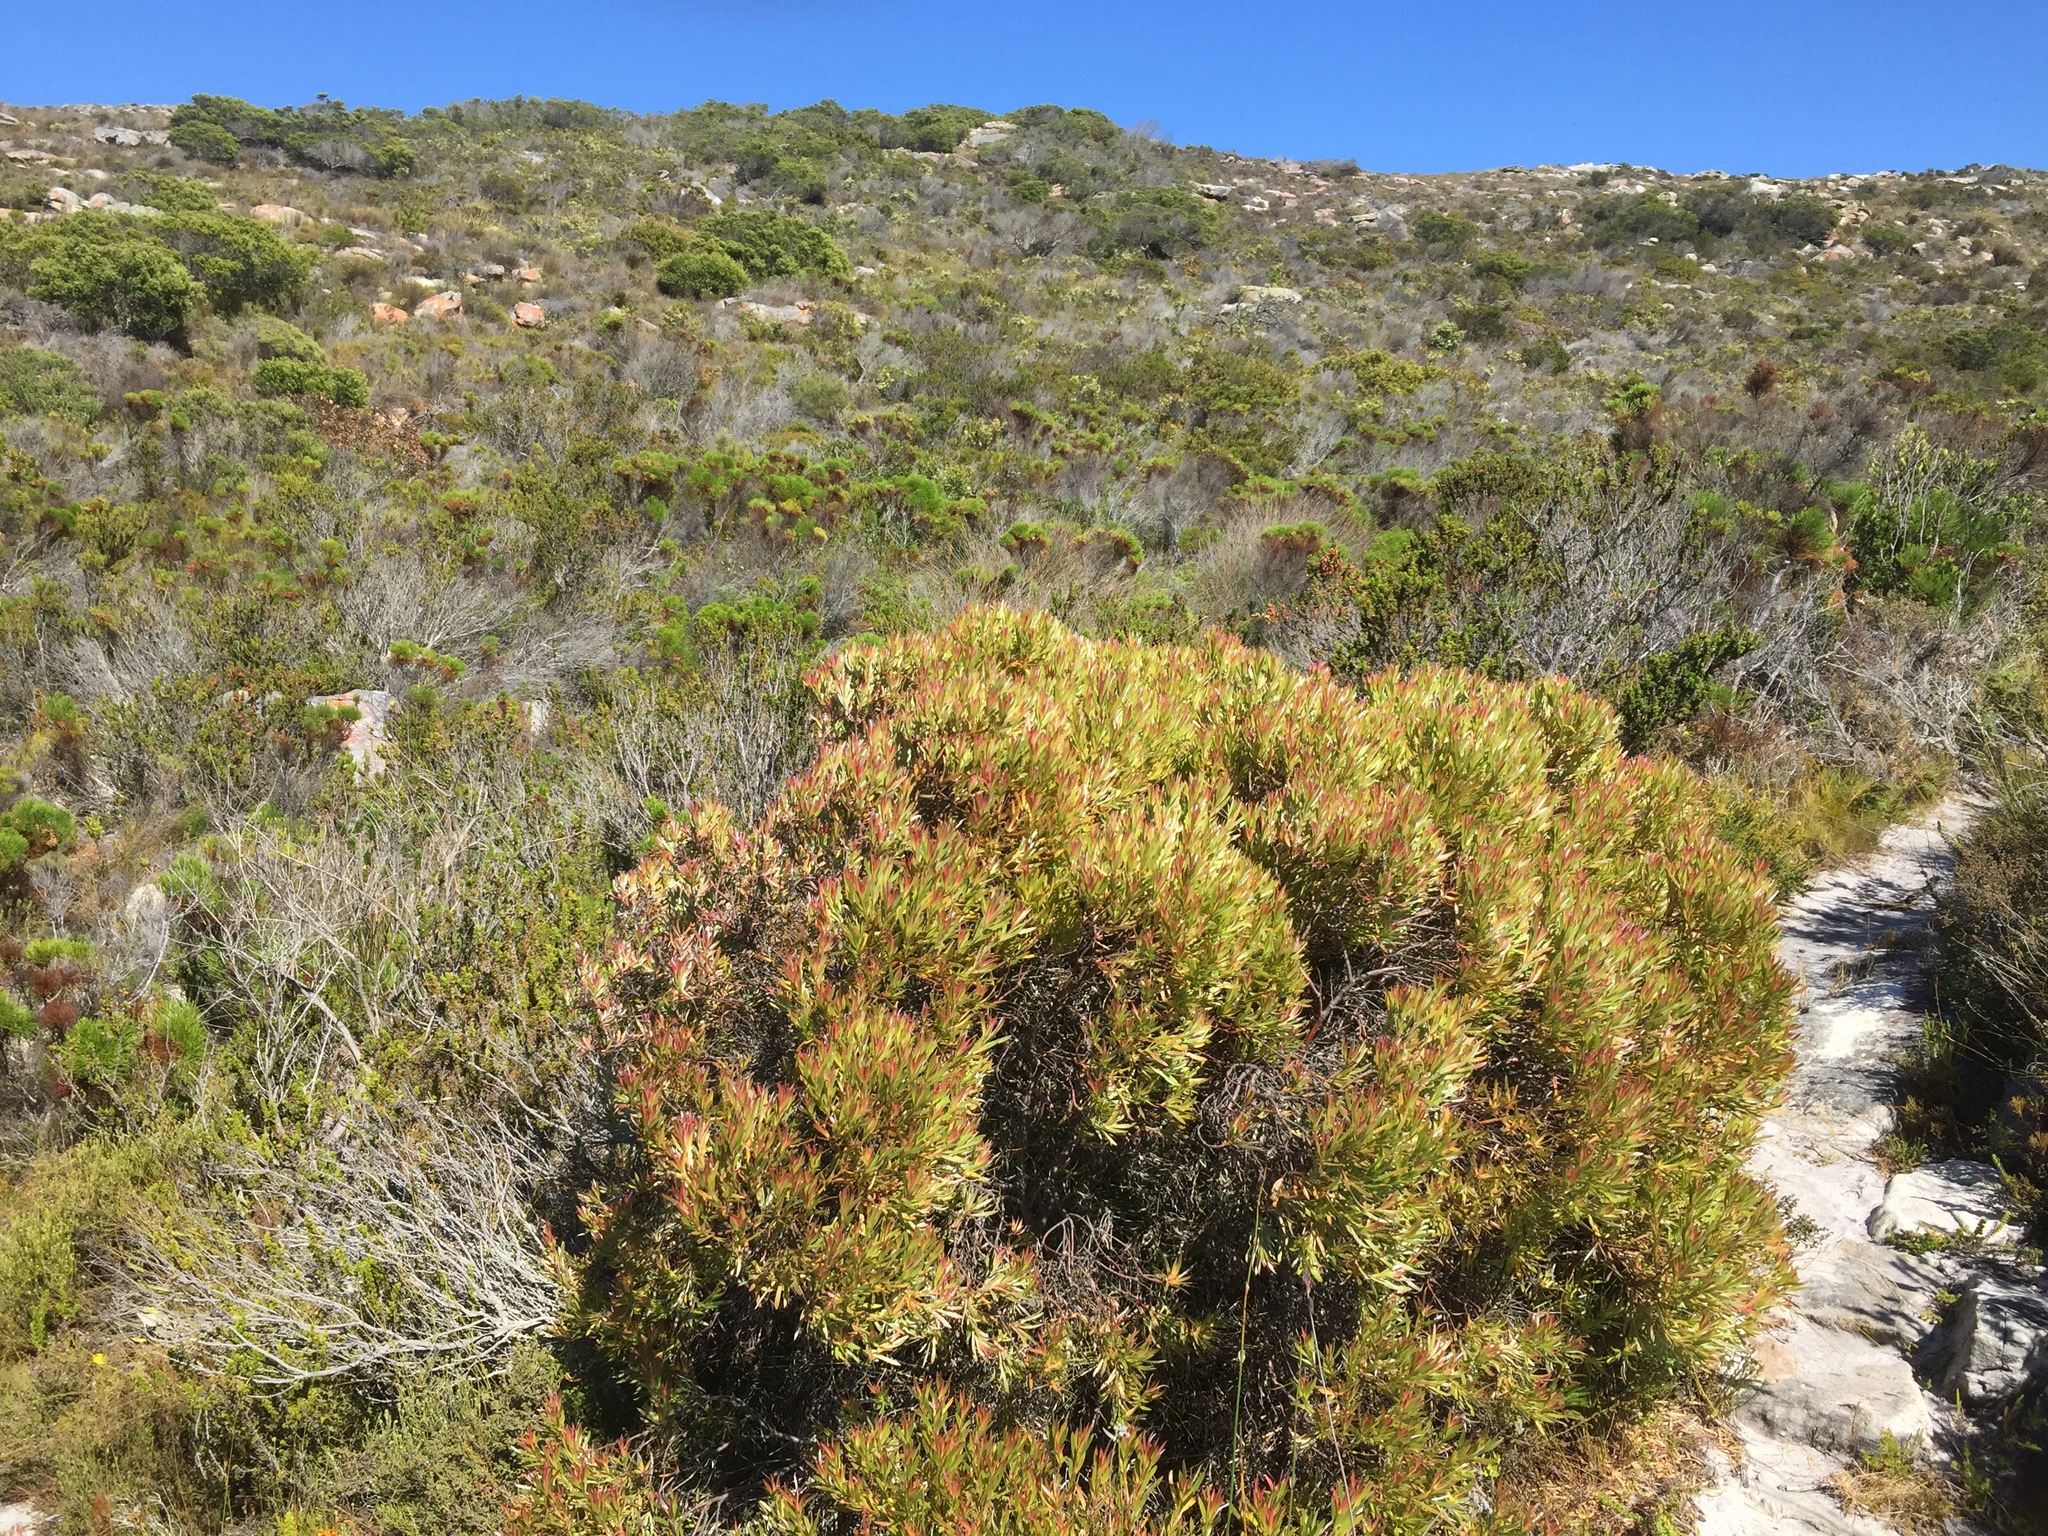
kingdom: Plantae
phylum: Tracheophyta
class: Magnoliopsida
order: Proteales
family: Proteaceae
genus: Leucadendron
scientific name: Leucadendron xanthoconus
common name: Sickle-leaf conebush
